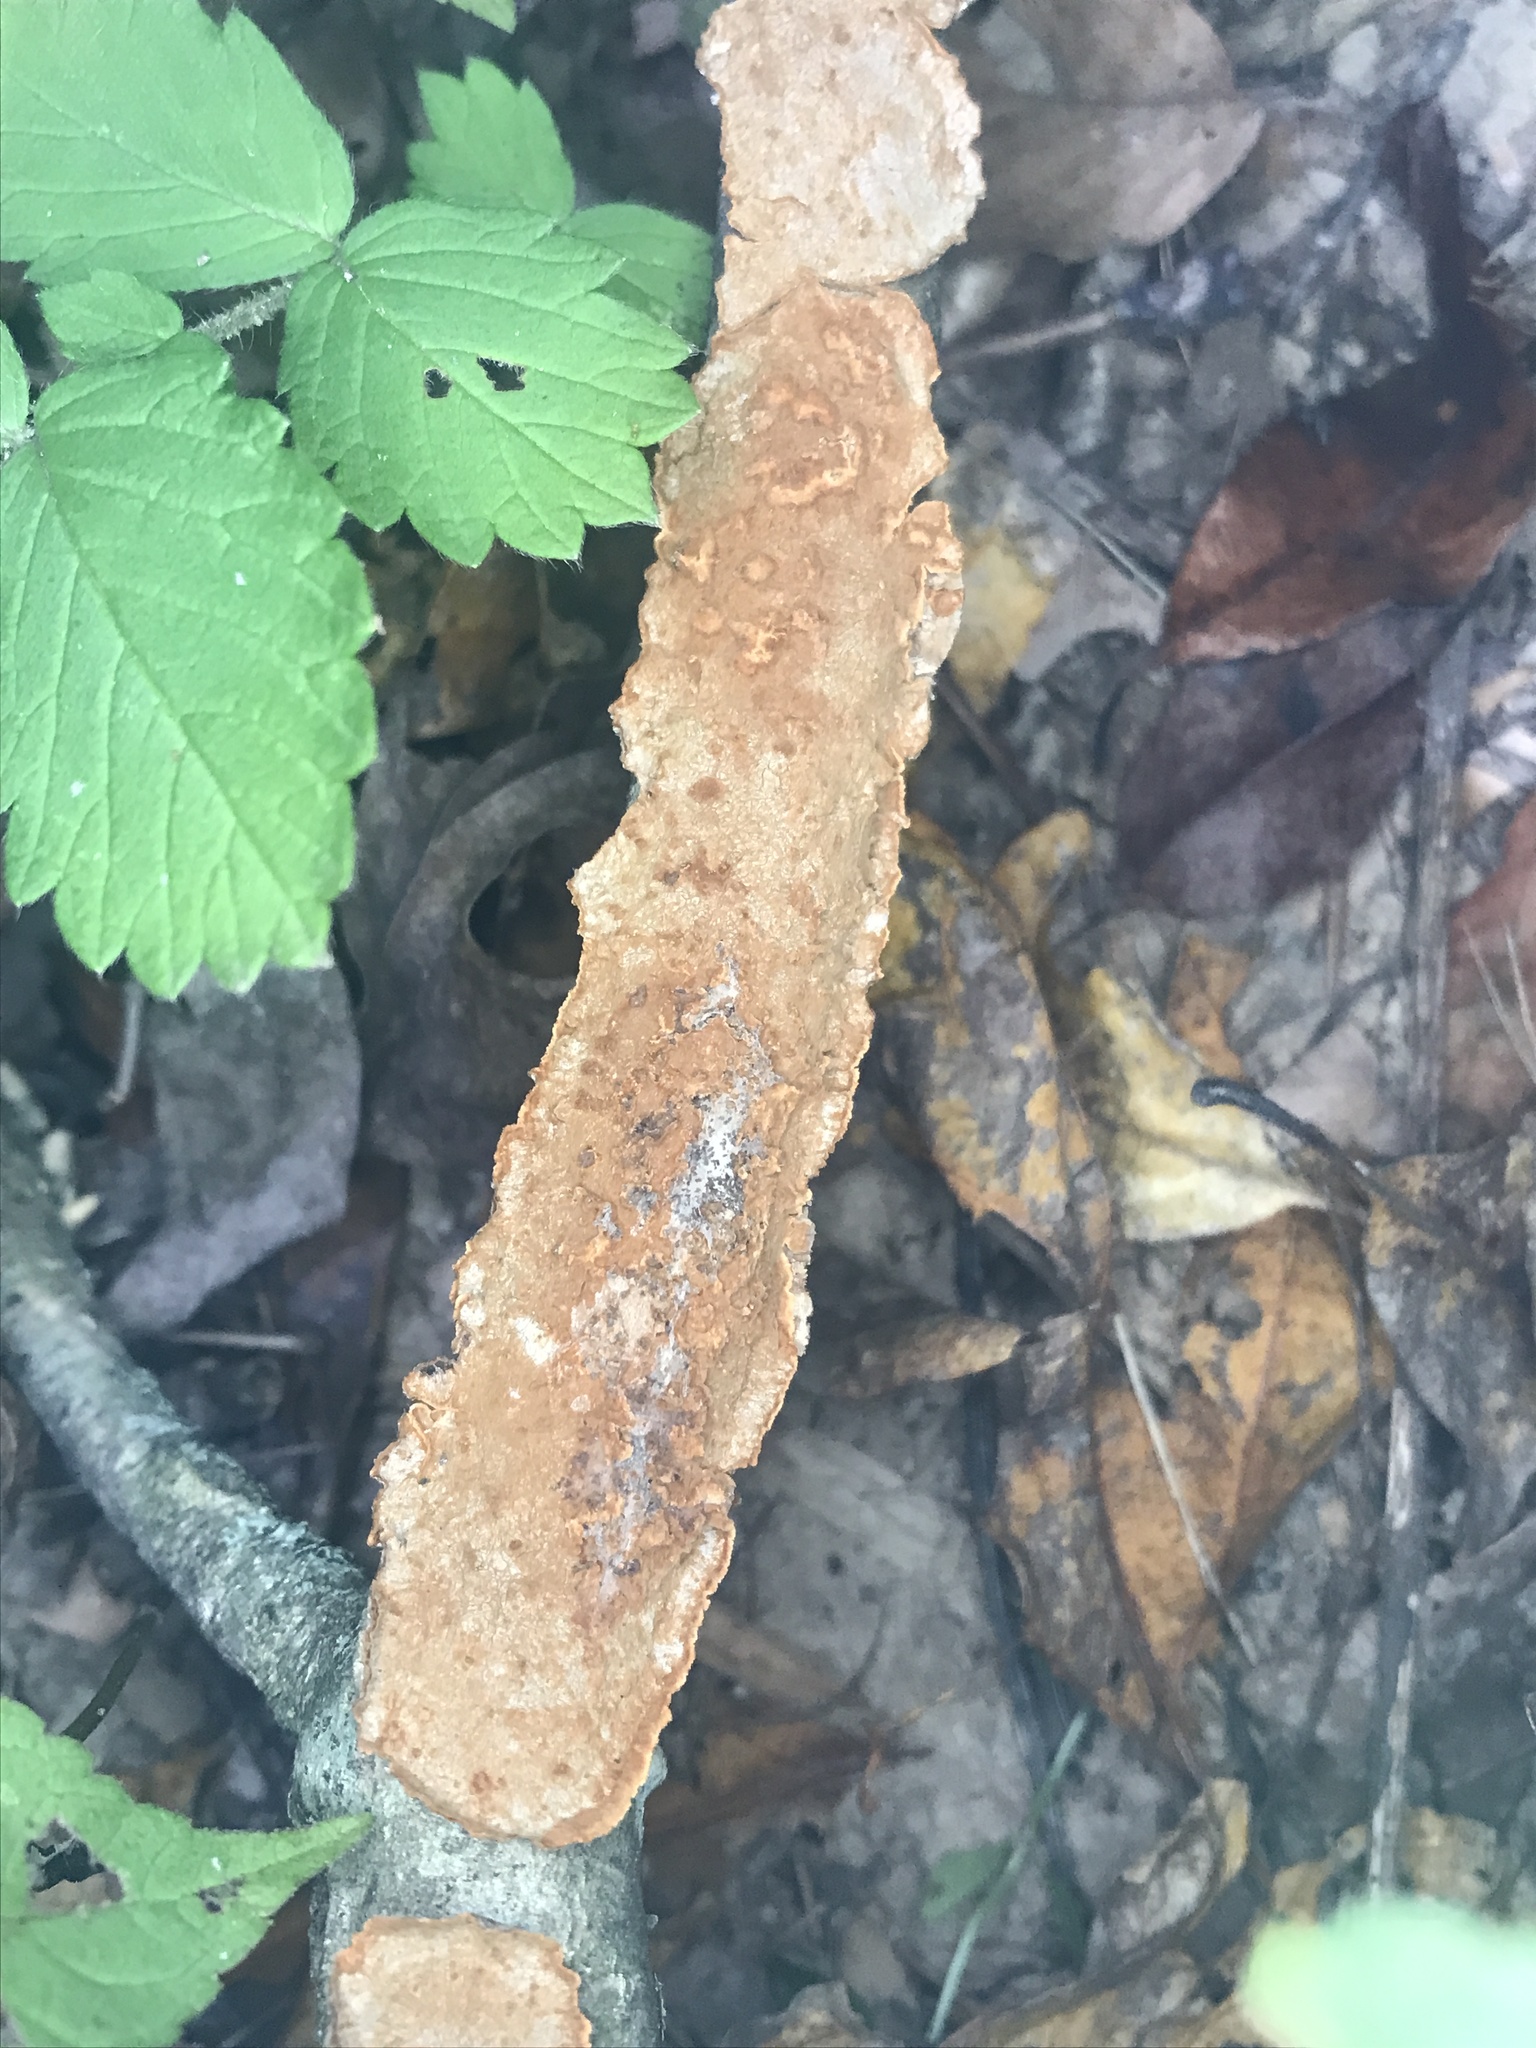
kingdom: Fungi
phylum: Basidiomycota
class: Agaricomycetes
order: Hymenochaetales
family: Hymenochaetaceae
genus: Hydnoporia
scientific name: Hydnoporia tabacina
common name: Willow glue
